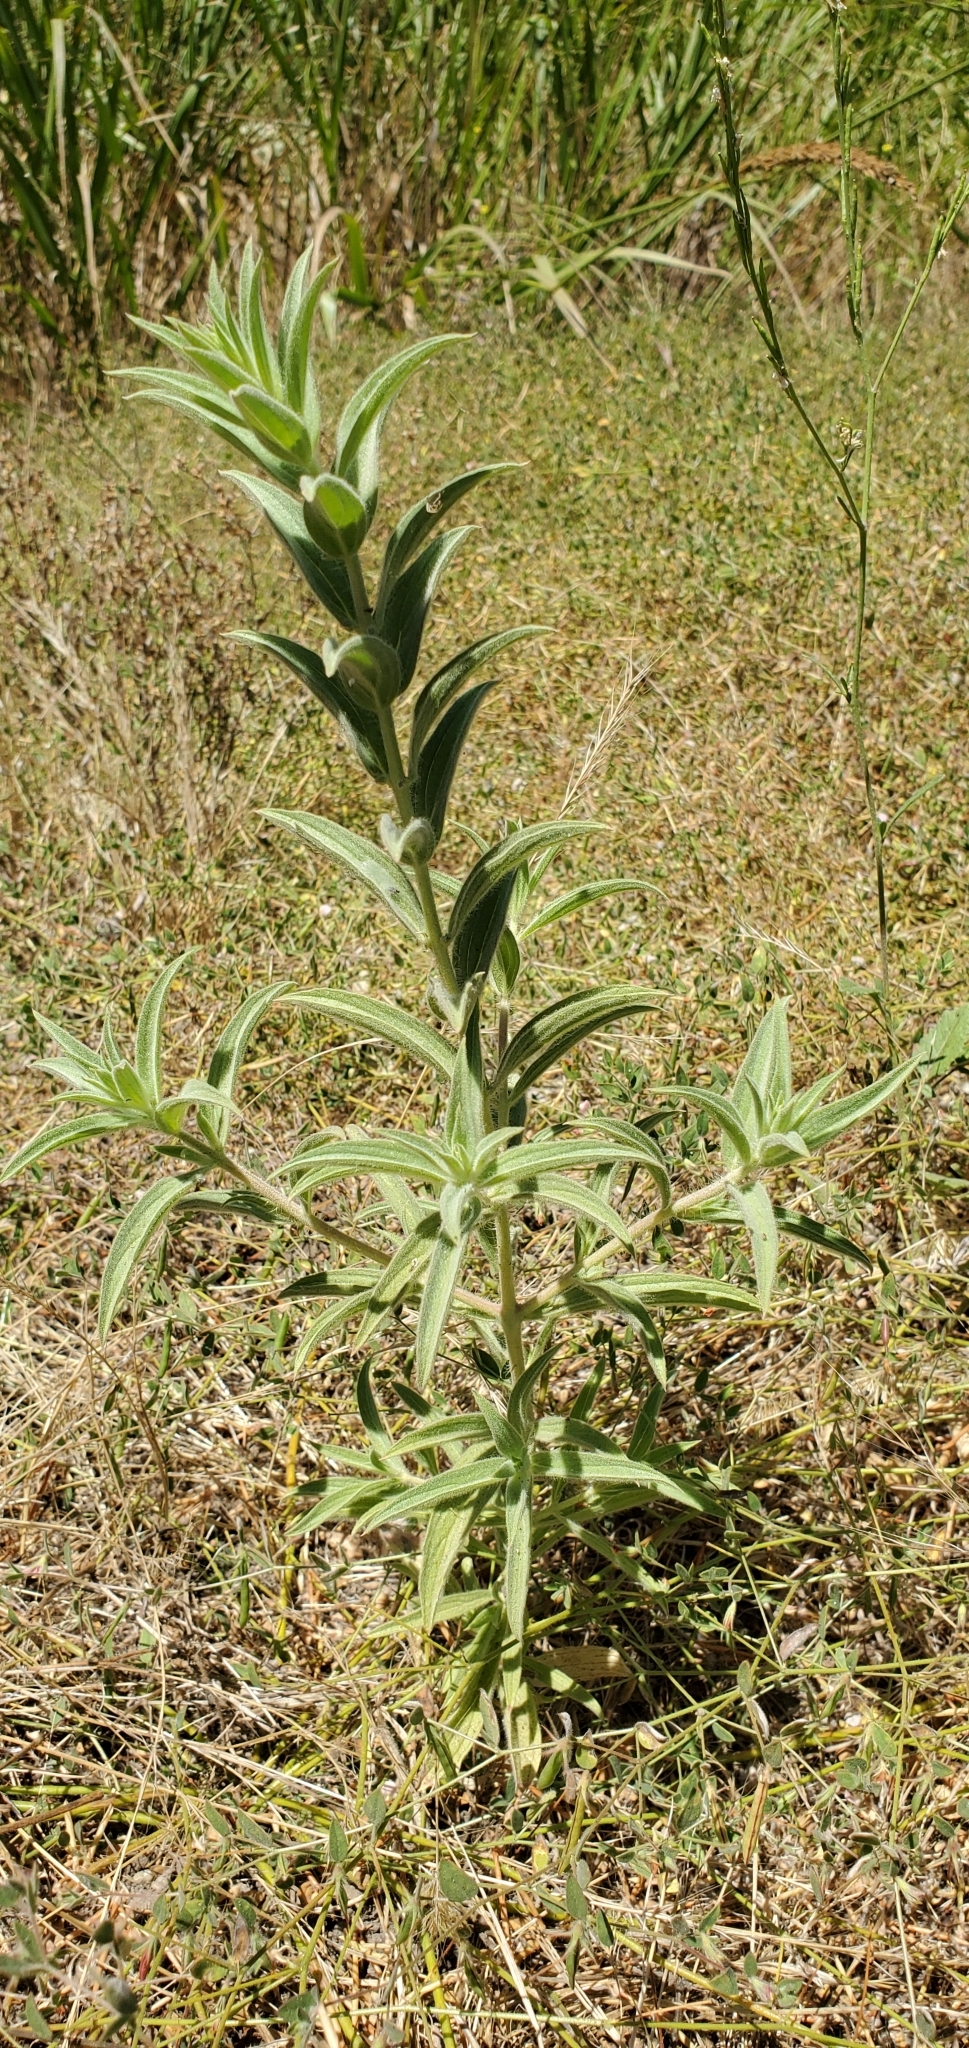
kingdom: Plantae
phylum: Tracheophyta
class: Magnoliopsida
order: Lamiales
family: Lamiaceae
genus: Trichostema
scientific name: Trichostema lanceolatum
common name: Vinegar-weed
